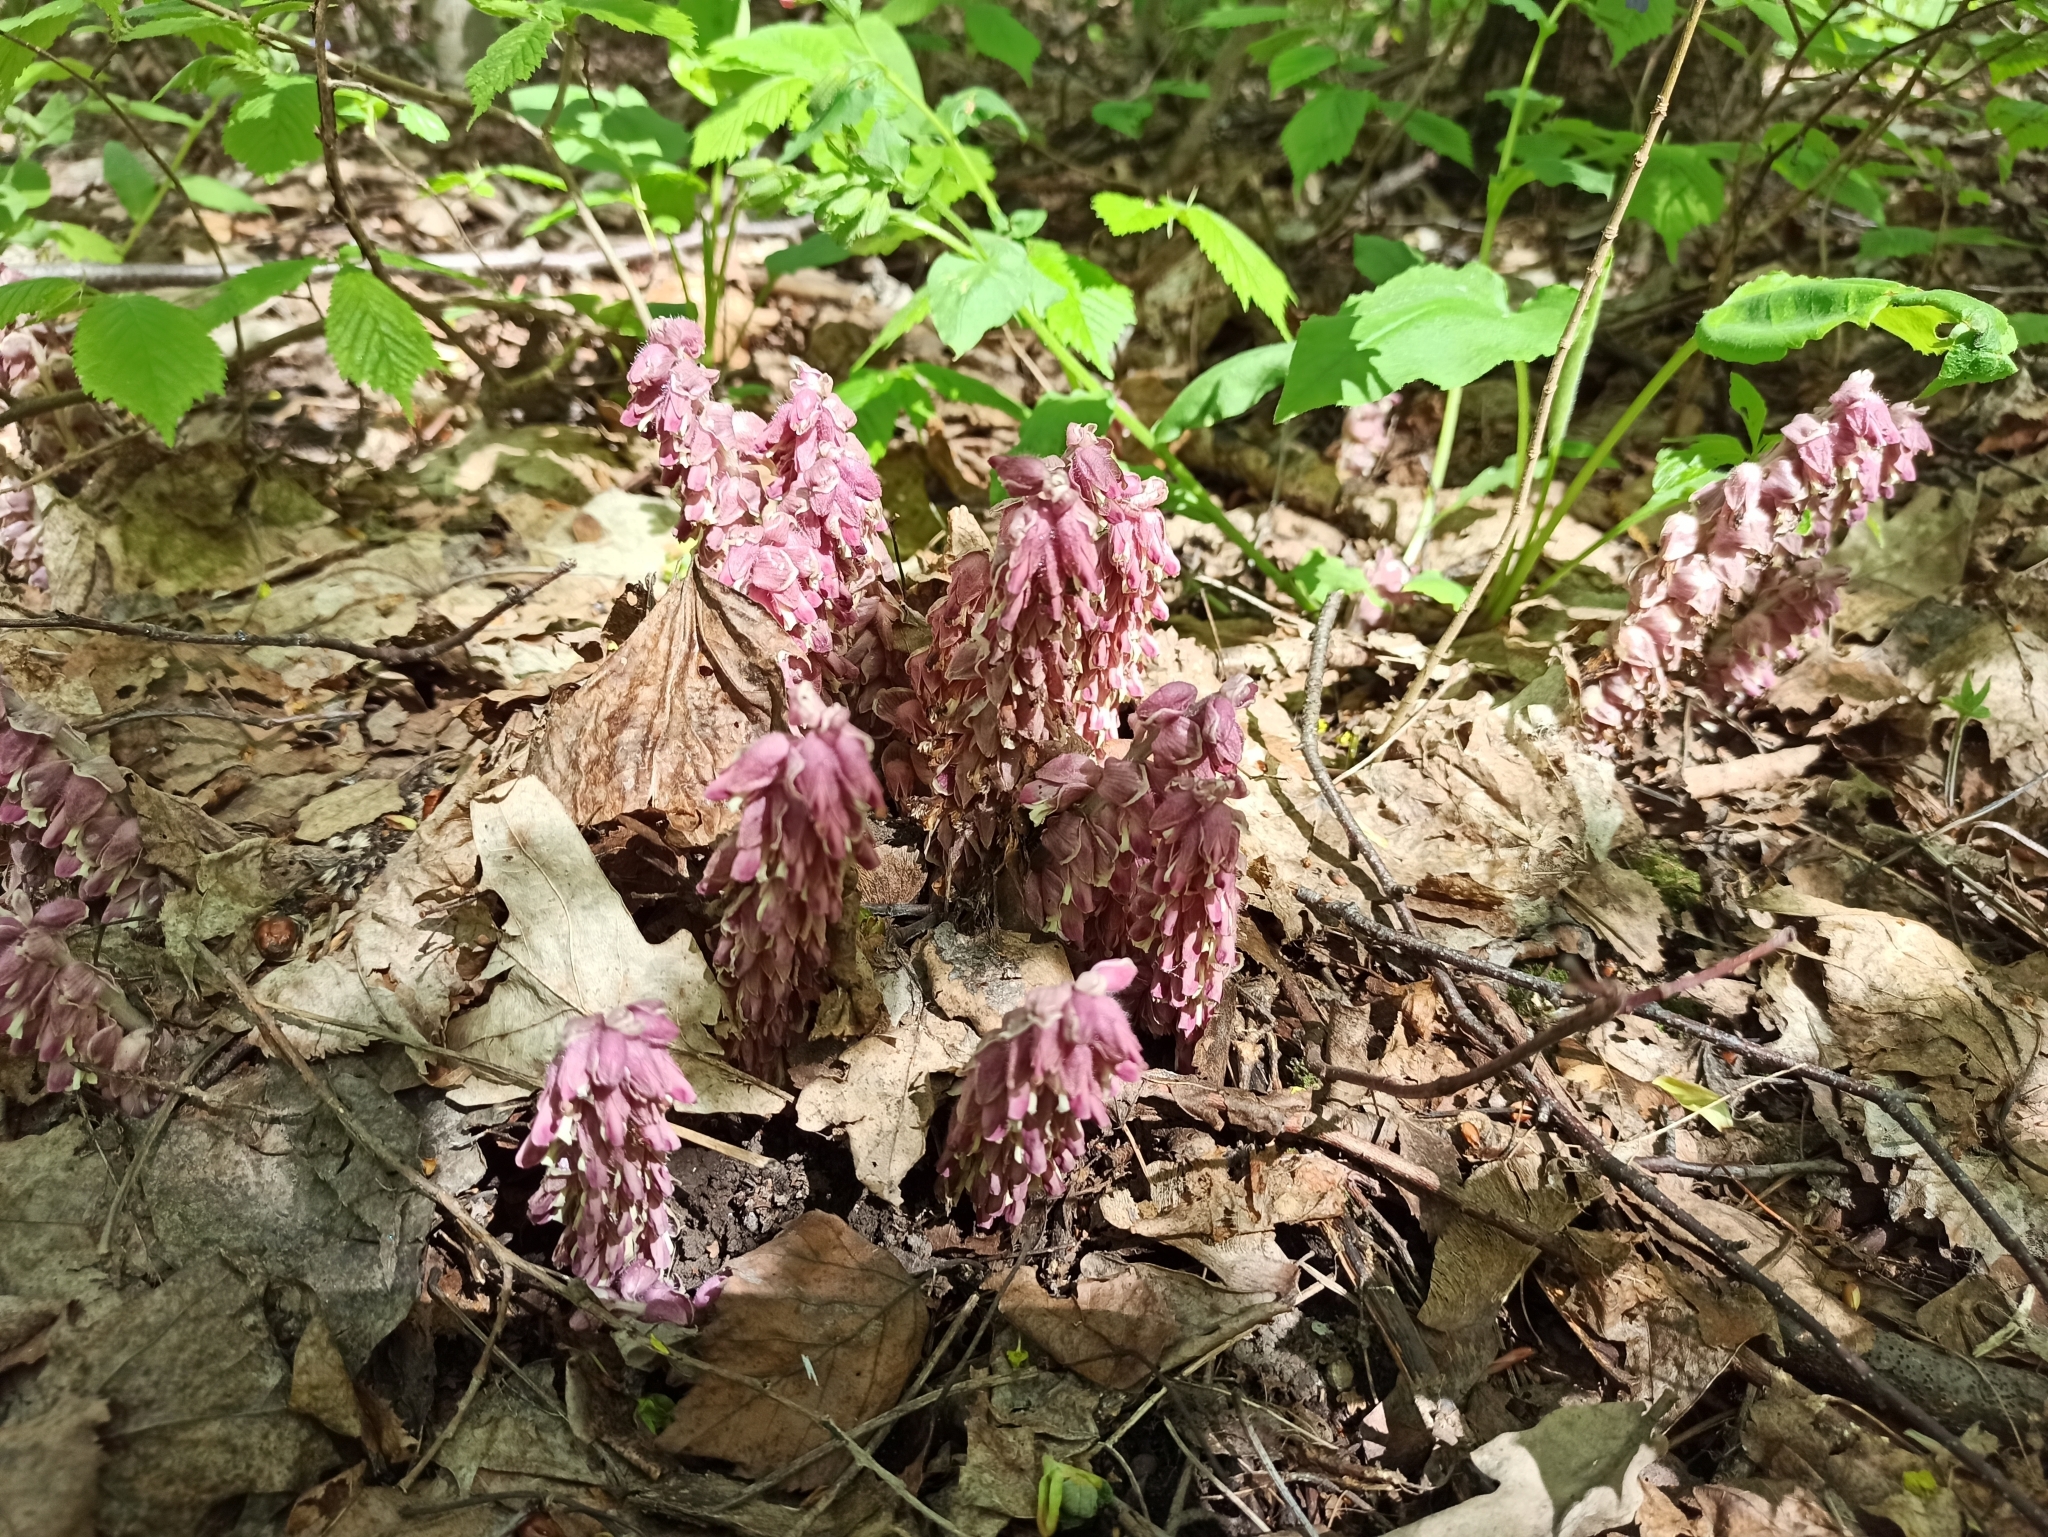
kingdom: Plantae
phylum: Tracheophyta
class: Magnoliopsida
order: Lamiales
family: Orobanchaceae
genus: Lathraea
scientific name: Lathraea squamaria
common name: Toothwort
